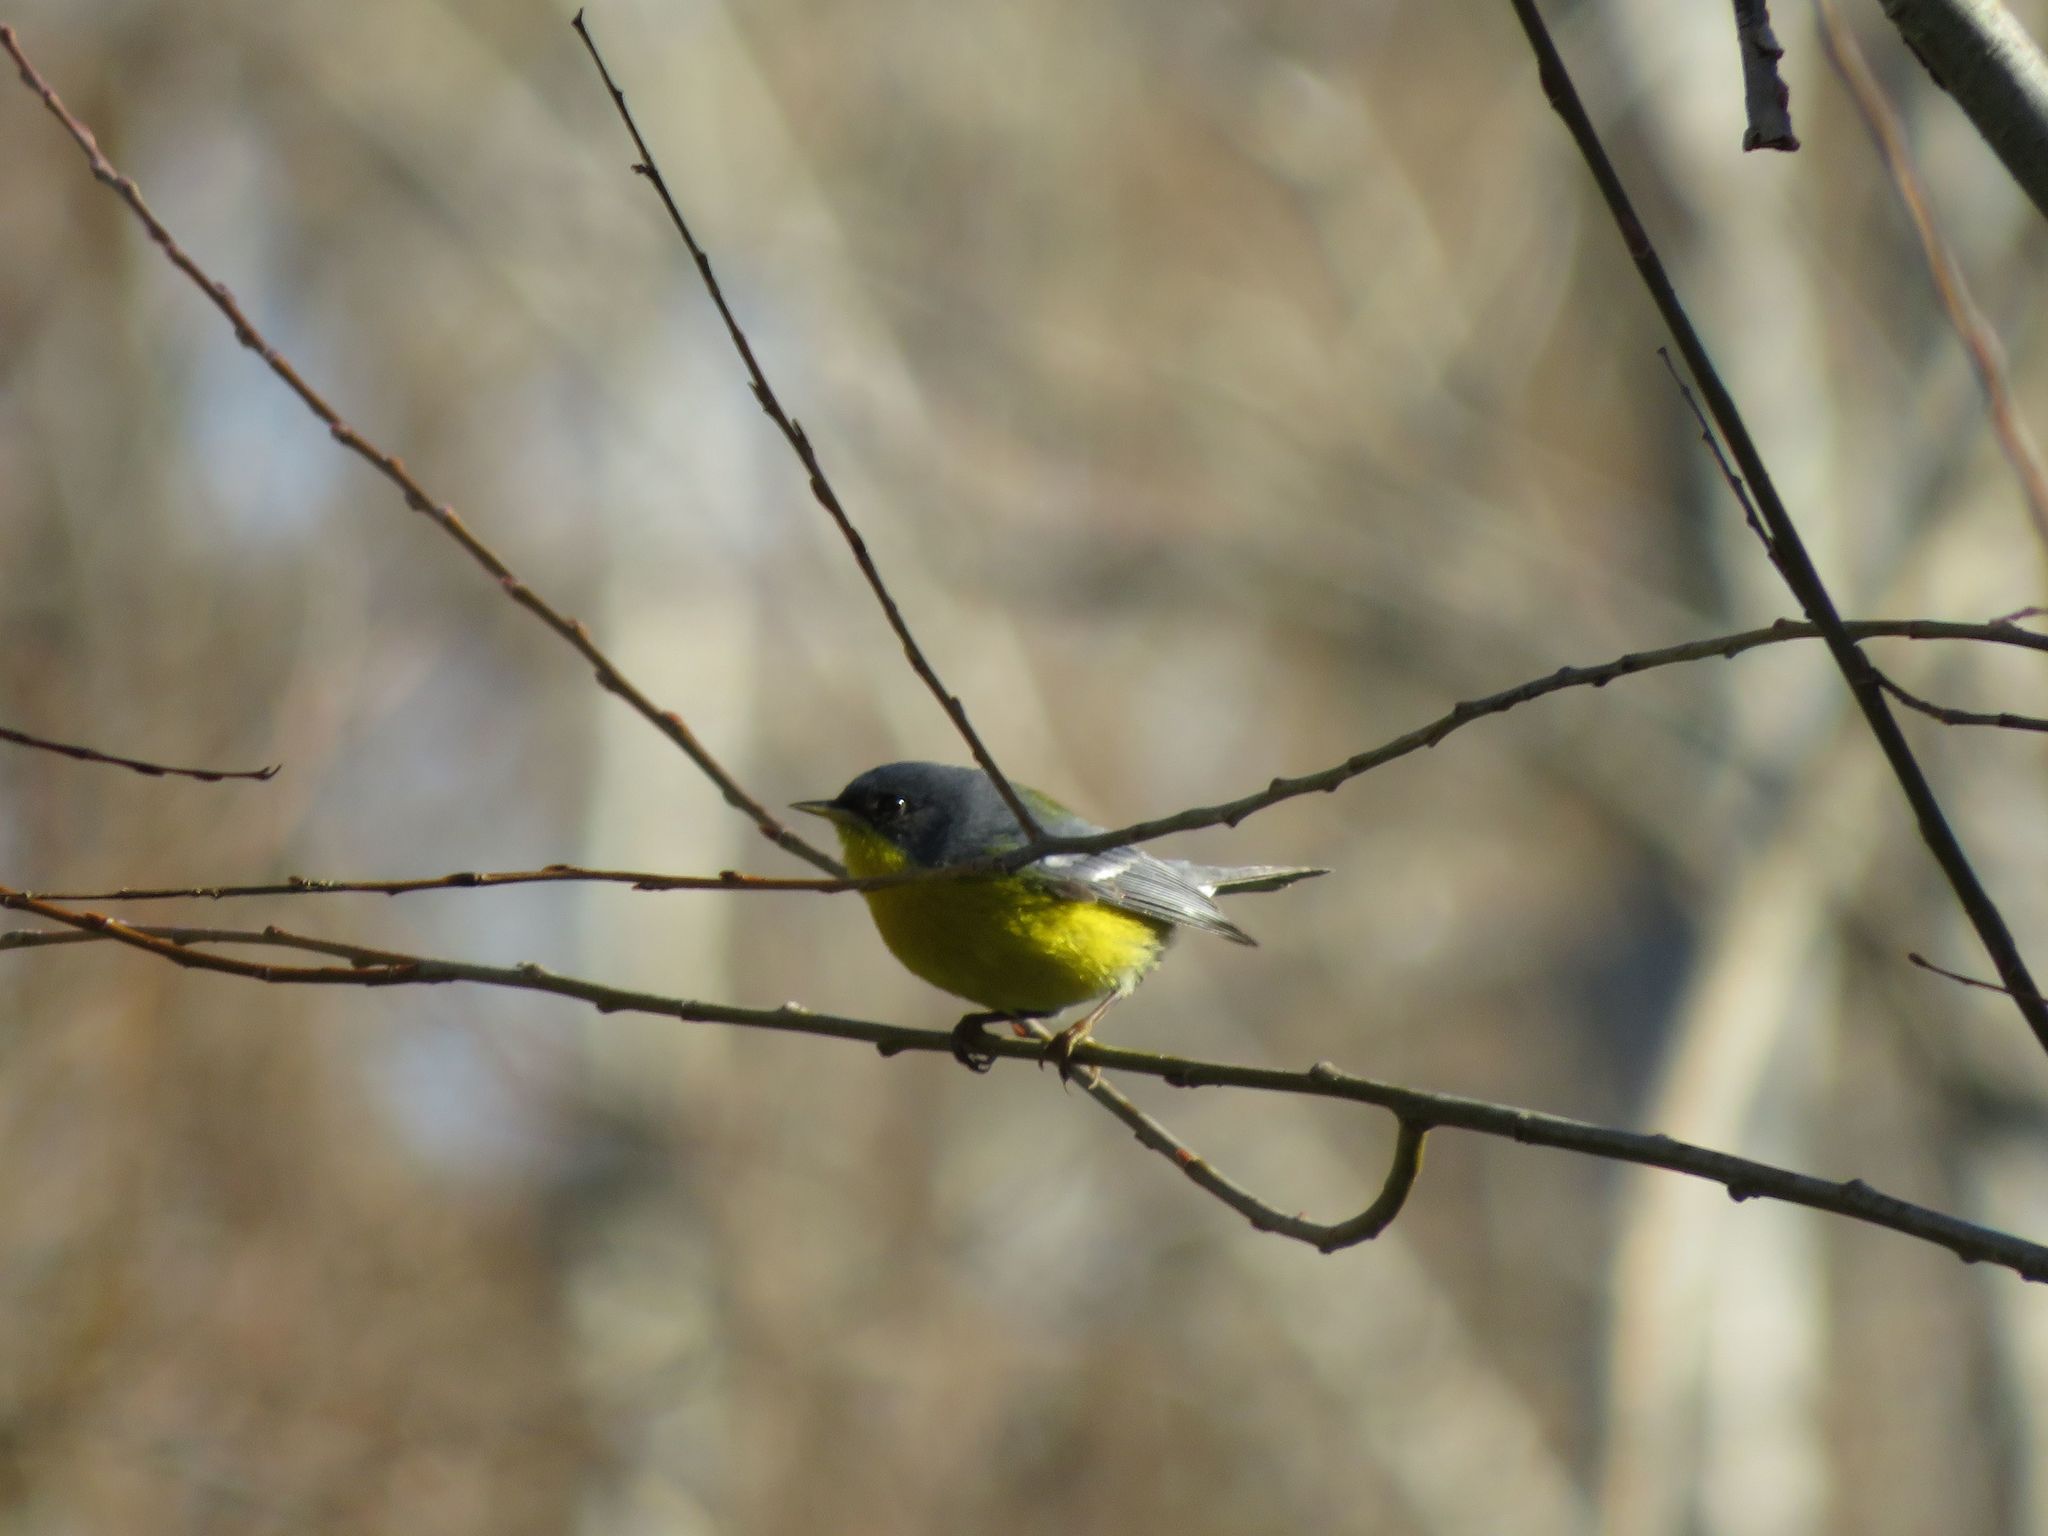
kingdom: Animalia
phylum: Chordata
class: Aves
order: Passeriformes
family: Parulidae
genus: Setophaga
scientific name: Setophaga pitiayumi
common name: Tropical parula
